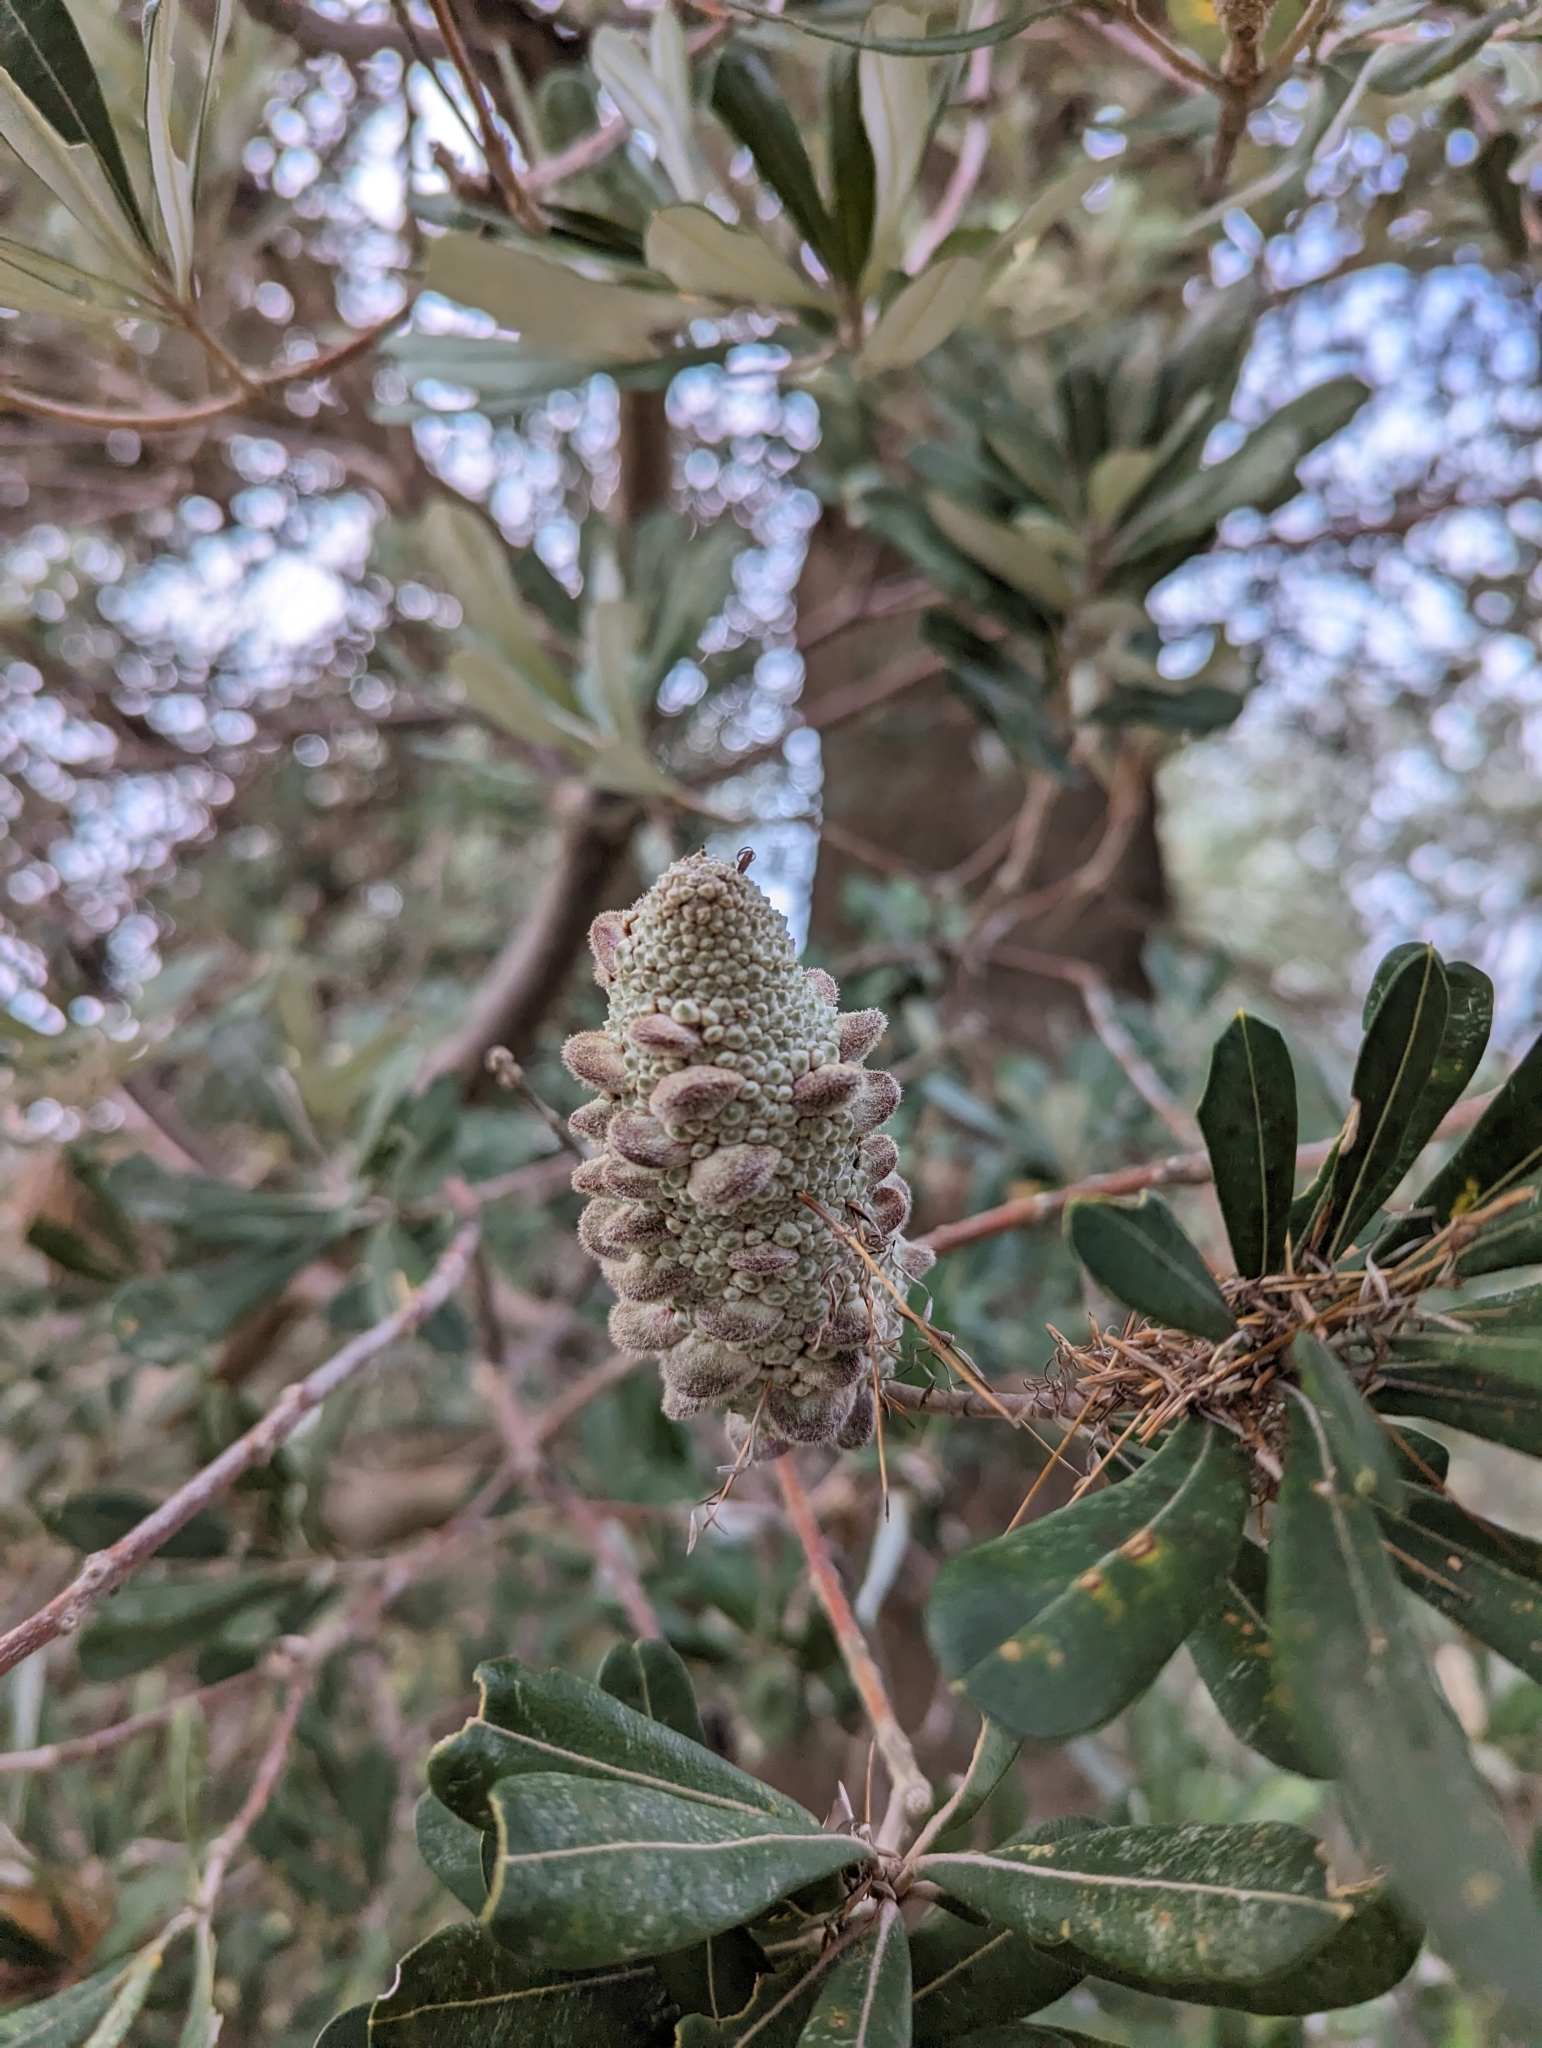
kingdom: Plantae
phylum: Tracheophyta
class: Magnoliopsida
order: Proteales
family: Proteaceae
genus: Banksia
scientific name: Banksia integrifolia
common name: White-honeysuckle
